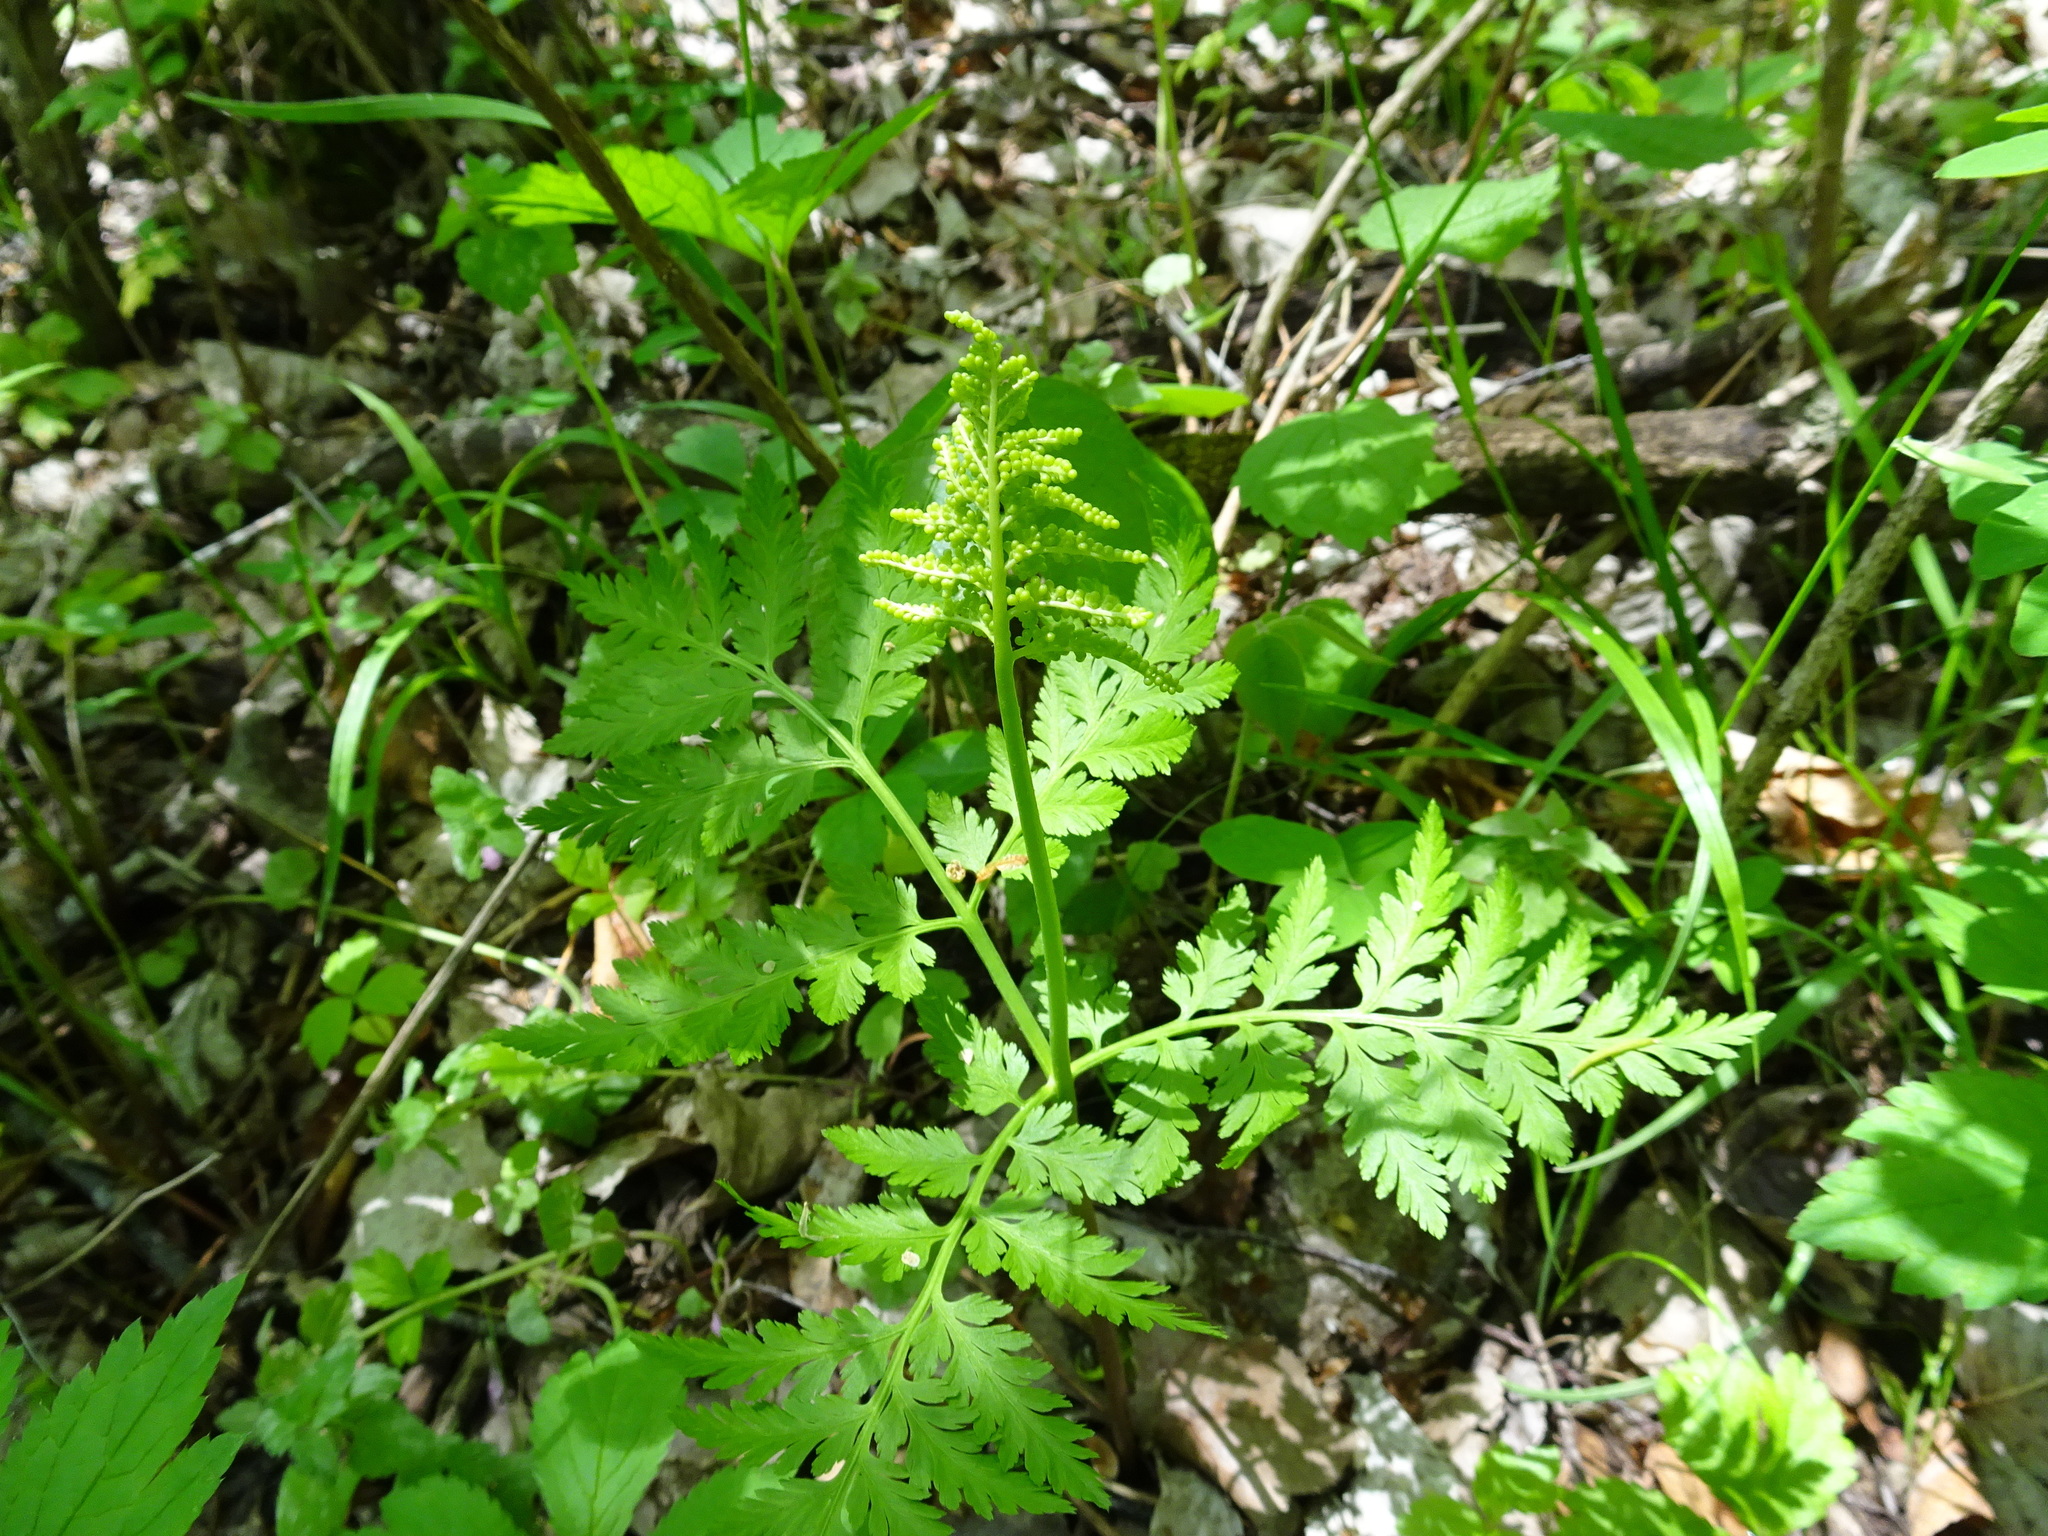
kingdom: Plantae
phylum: Tracheophyta
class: Polypodiopsida
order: Ophioglossales
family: Ophioglossaceae
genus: Botrypus
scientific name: Botrypus virginianus
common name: Common grapefern
